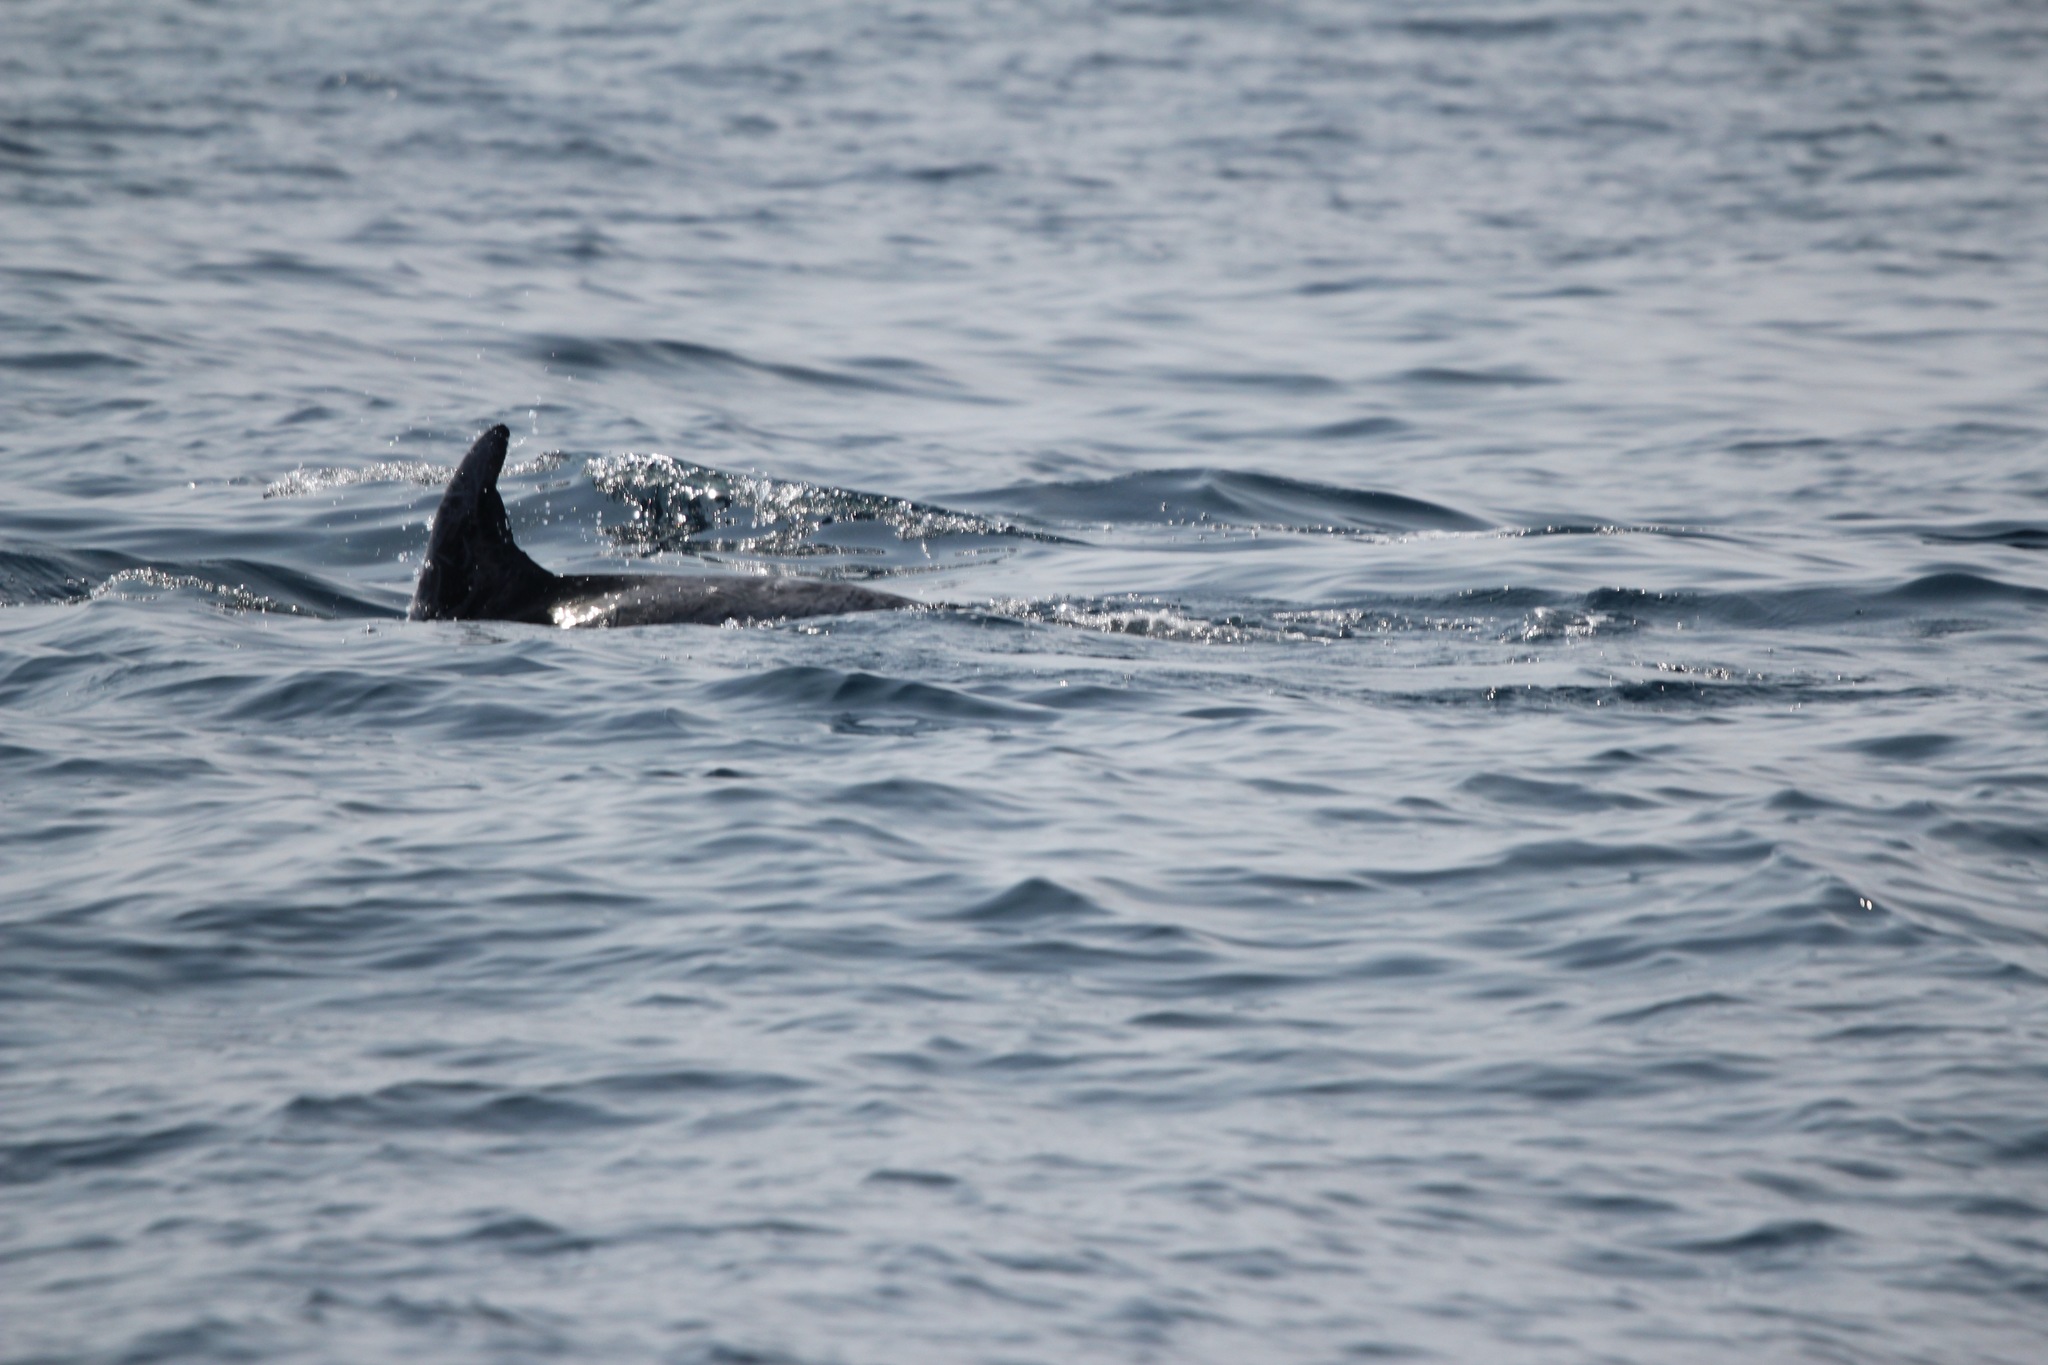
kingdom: Animalia
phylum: Chordata
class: Mammalia
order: Cetacea
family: Delphinidae
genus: Grampus
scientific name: Grampus griseus
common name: Risso's dolphin
